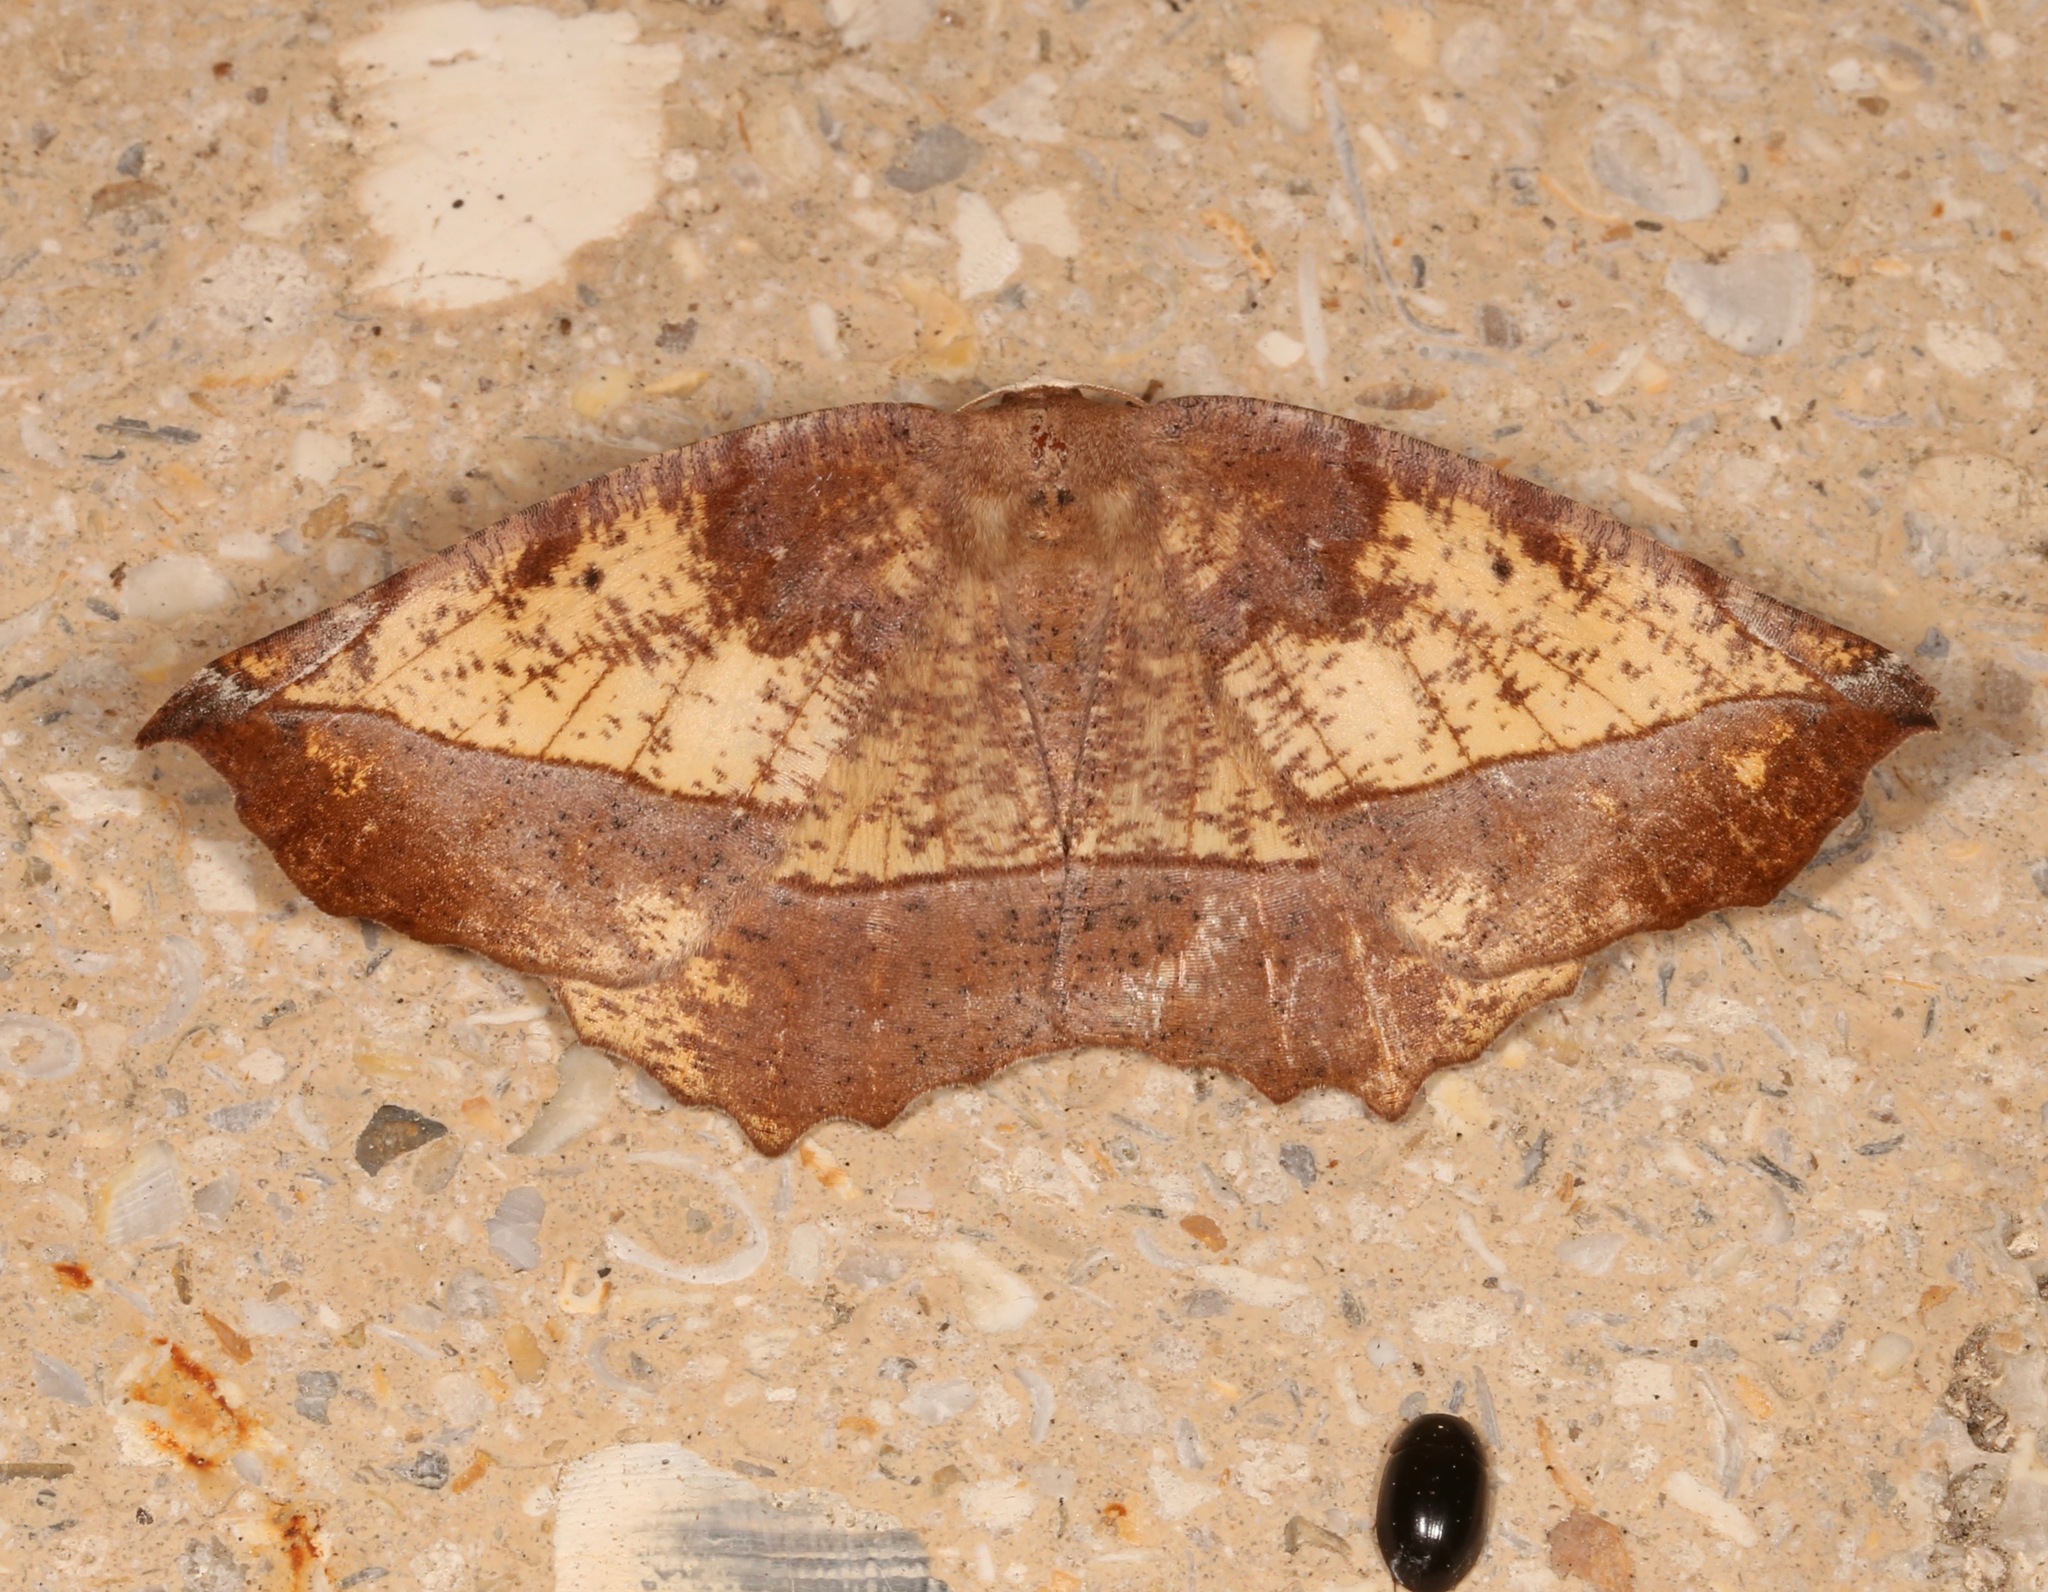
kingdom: Animalia
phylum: Arthropoda
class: Insecta
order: Lepidoptera
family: Geometridae
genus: Eutrapela
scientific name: Eutrapela clemataria
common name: Curved-toothed geometer
